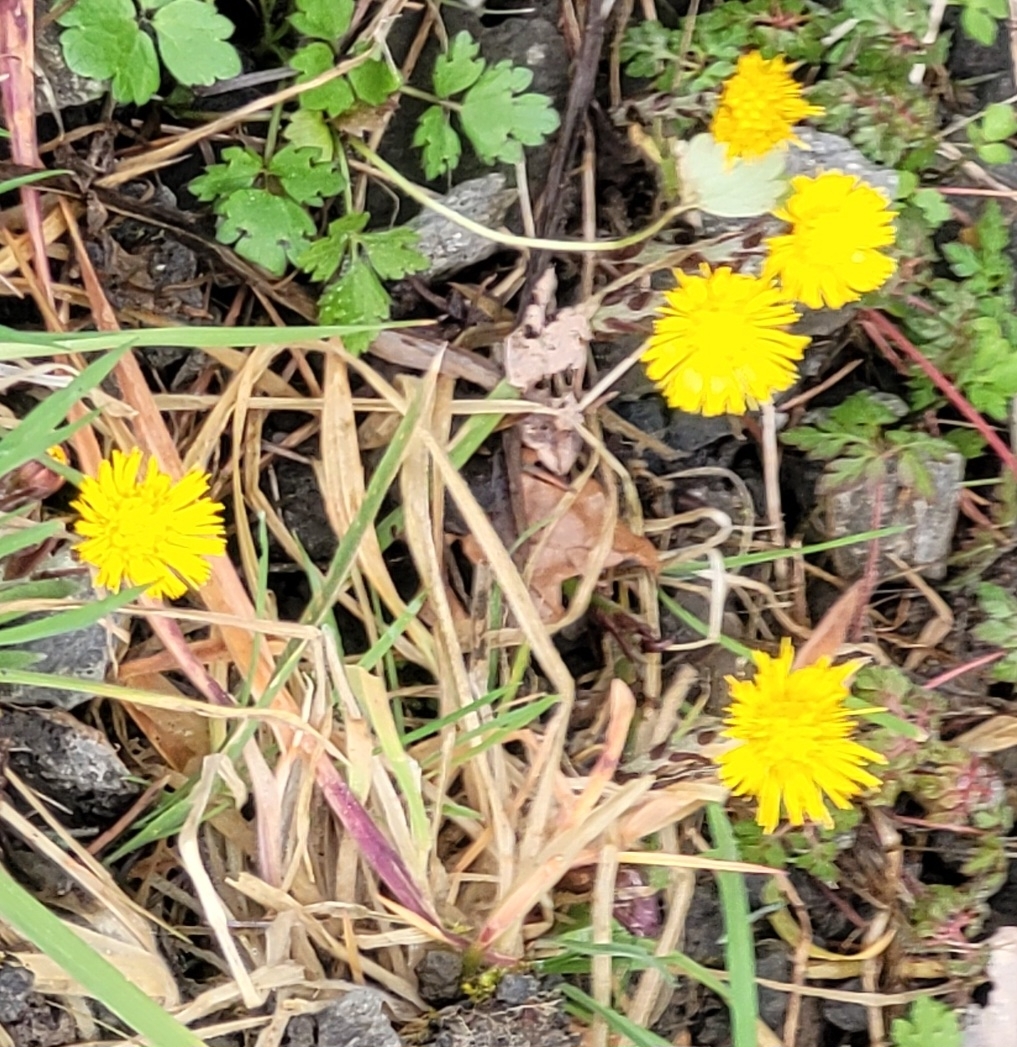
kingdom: Plantae
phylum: Tracheophyta
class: Magnoliopsida
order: Asterales
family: Asteraceae
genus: Tussilago
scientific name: Tussilago farfara
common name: Coltsfoot
